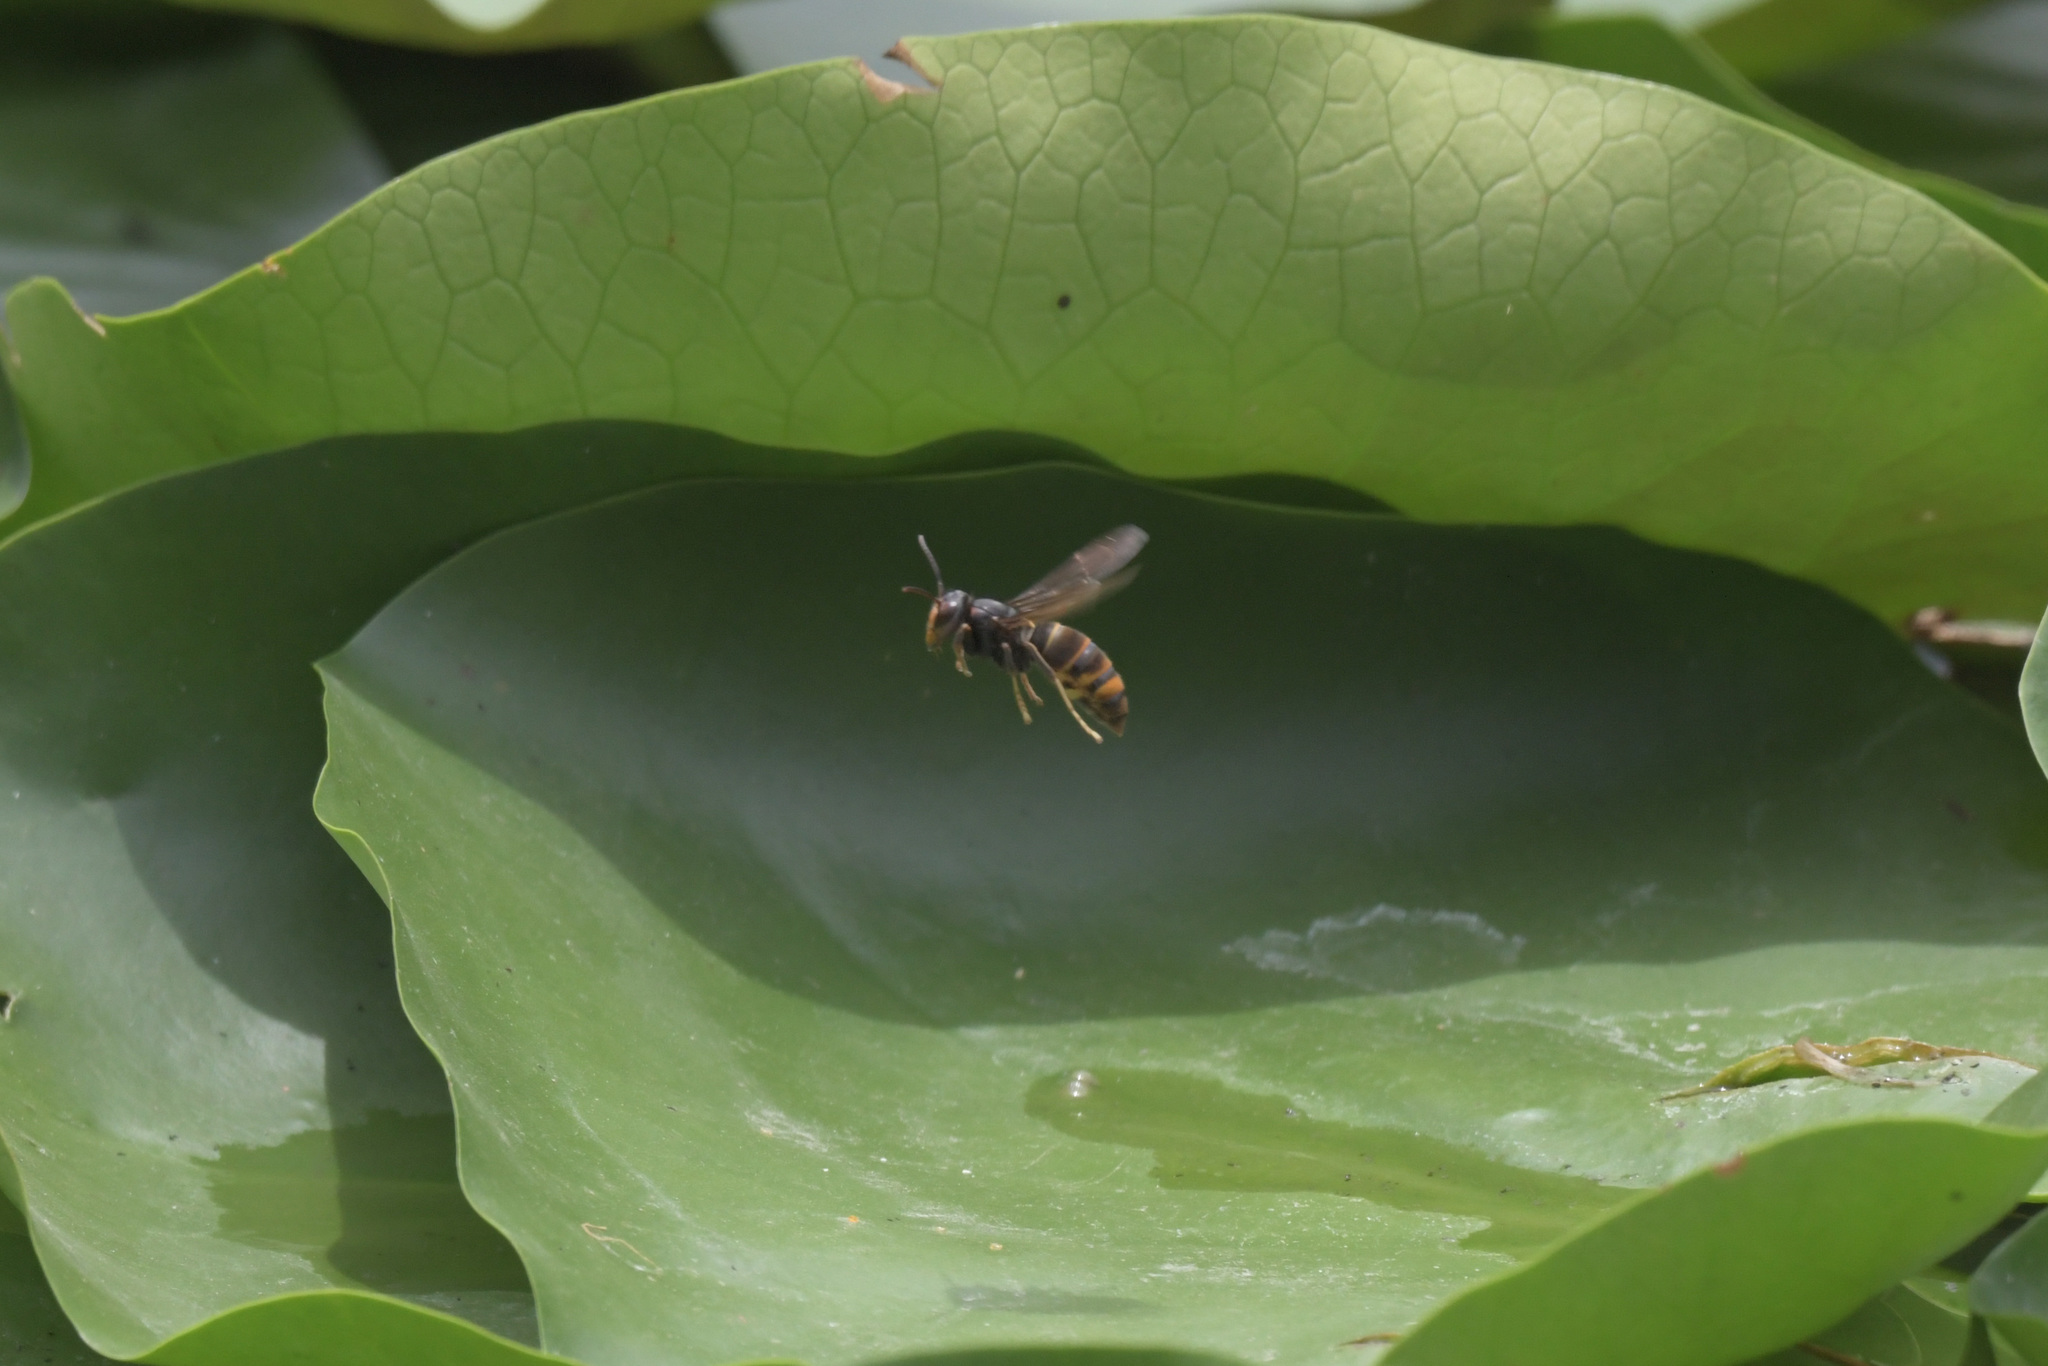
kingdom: Animalia
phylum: Arthropoda
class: Insecta
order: Hymenoptera
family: Vespidae
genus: Vespa
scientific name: Vespa velutina
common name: Asian hornet
